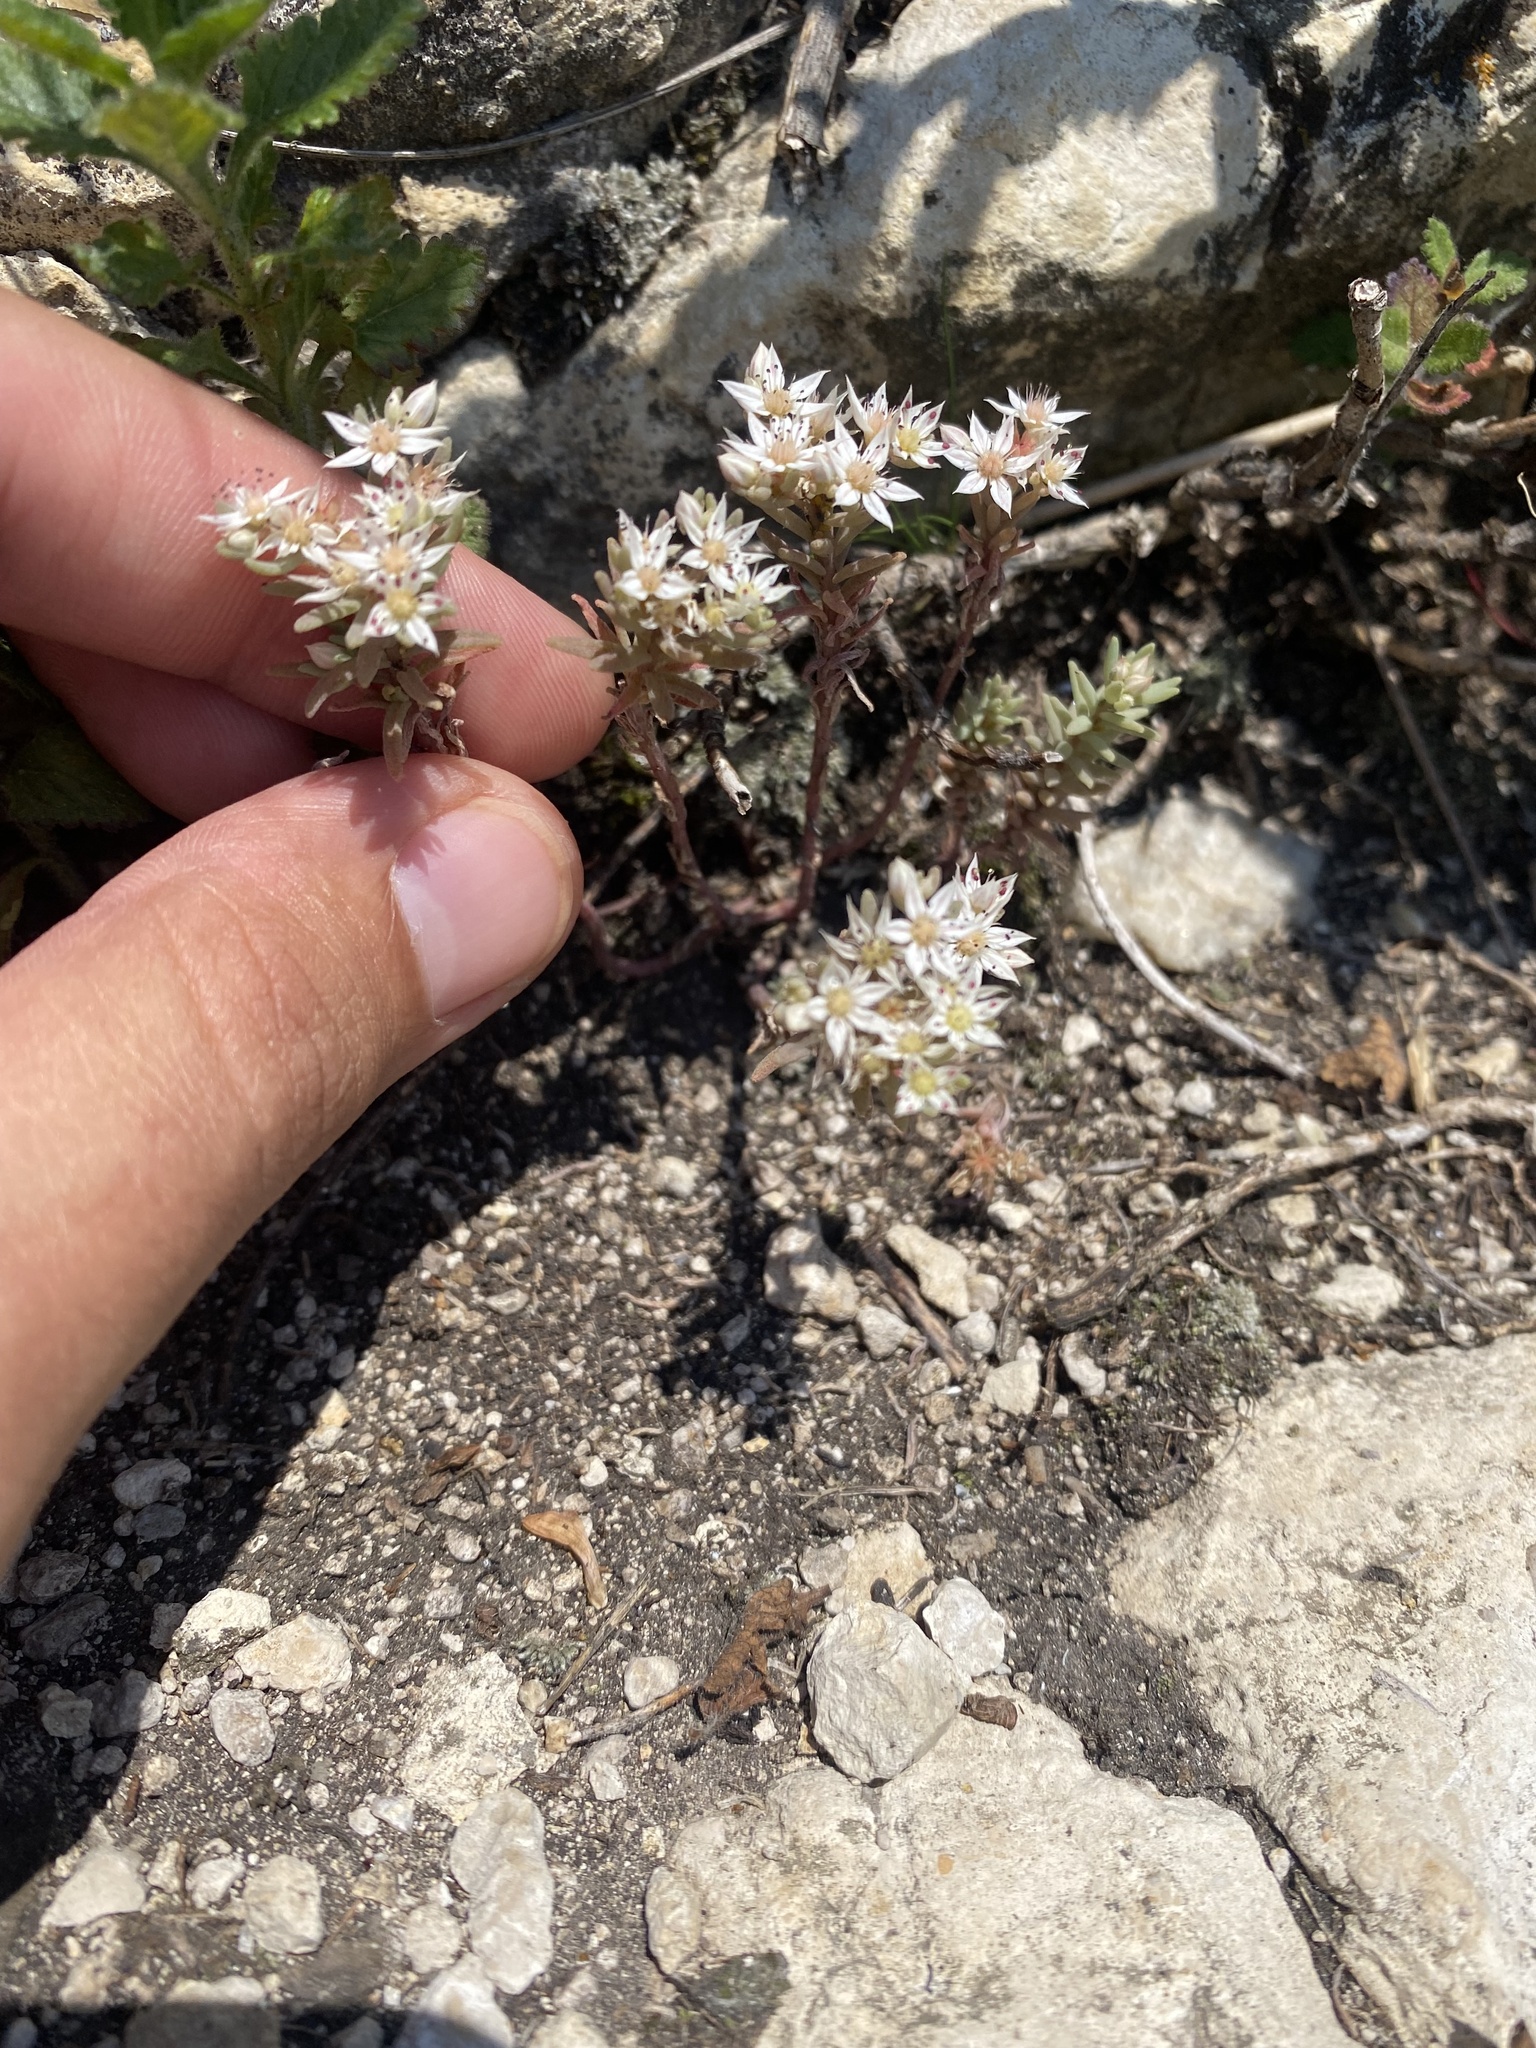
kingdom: Plantae
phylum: Tracheophyta
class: Magnoliopsida
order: Saxifragales
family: Crassulaceae
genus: Sedum
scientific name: Sedum hispanicum
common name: Spanish stonecrop
